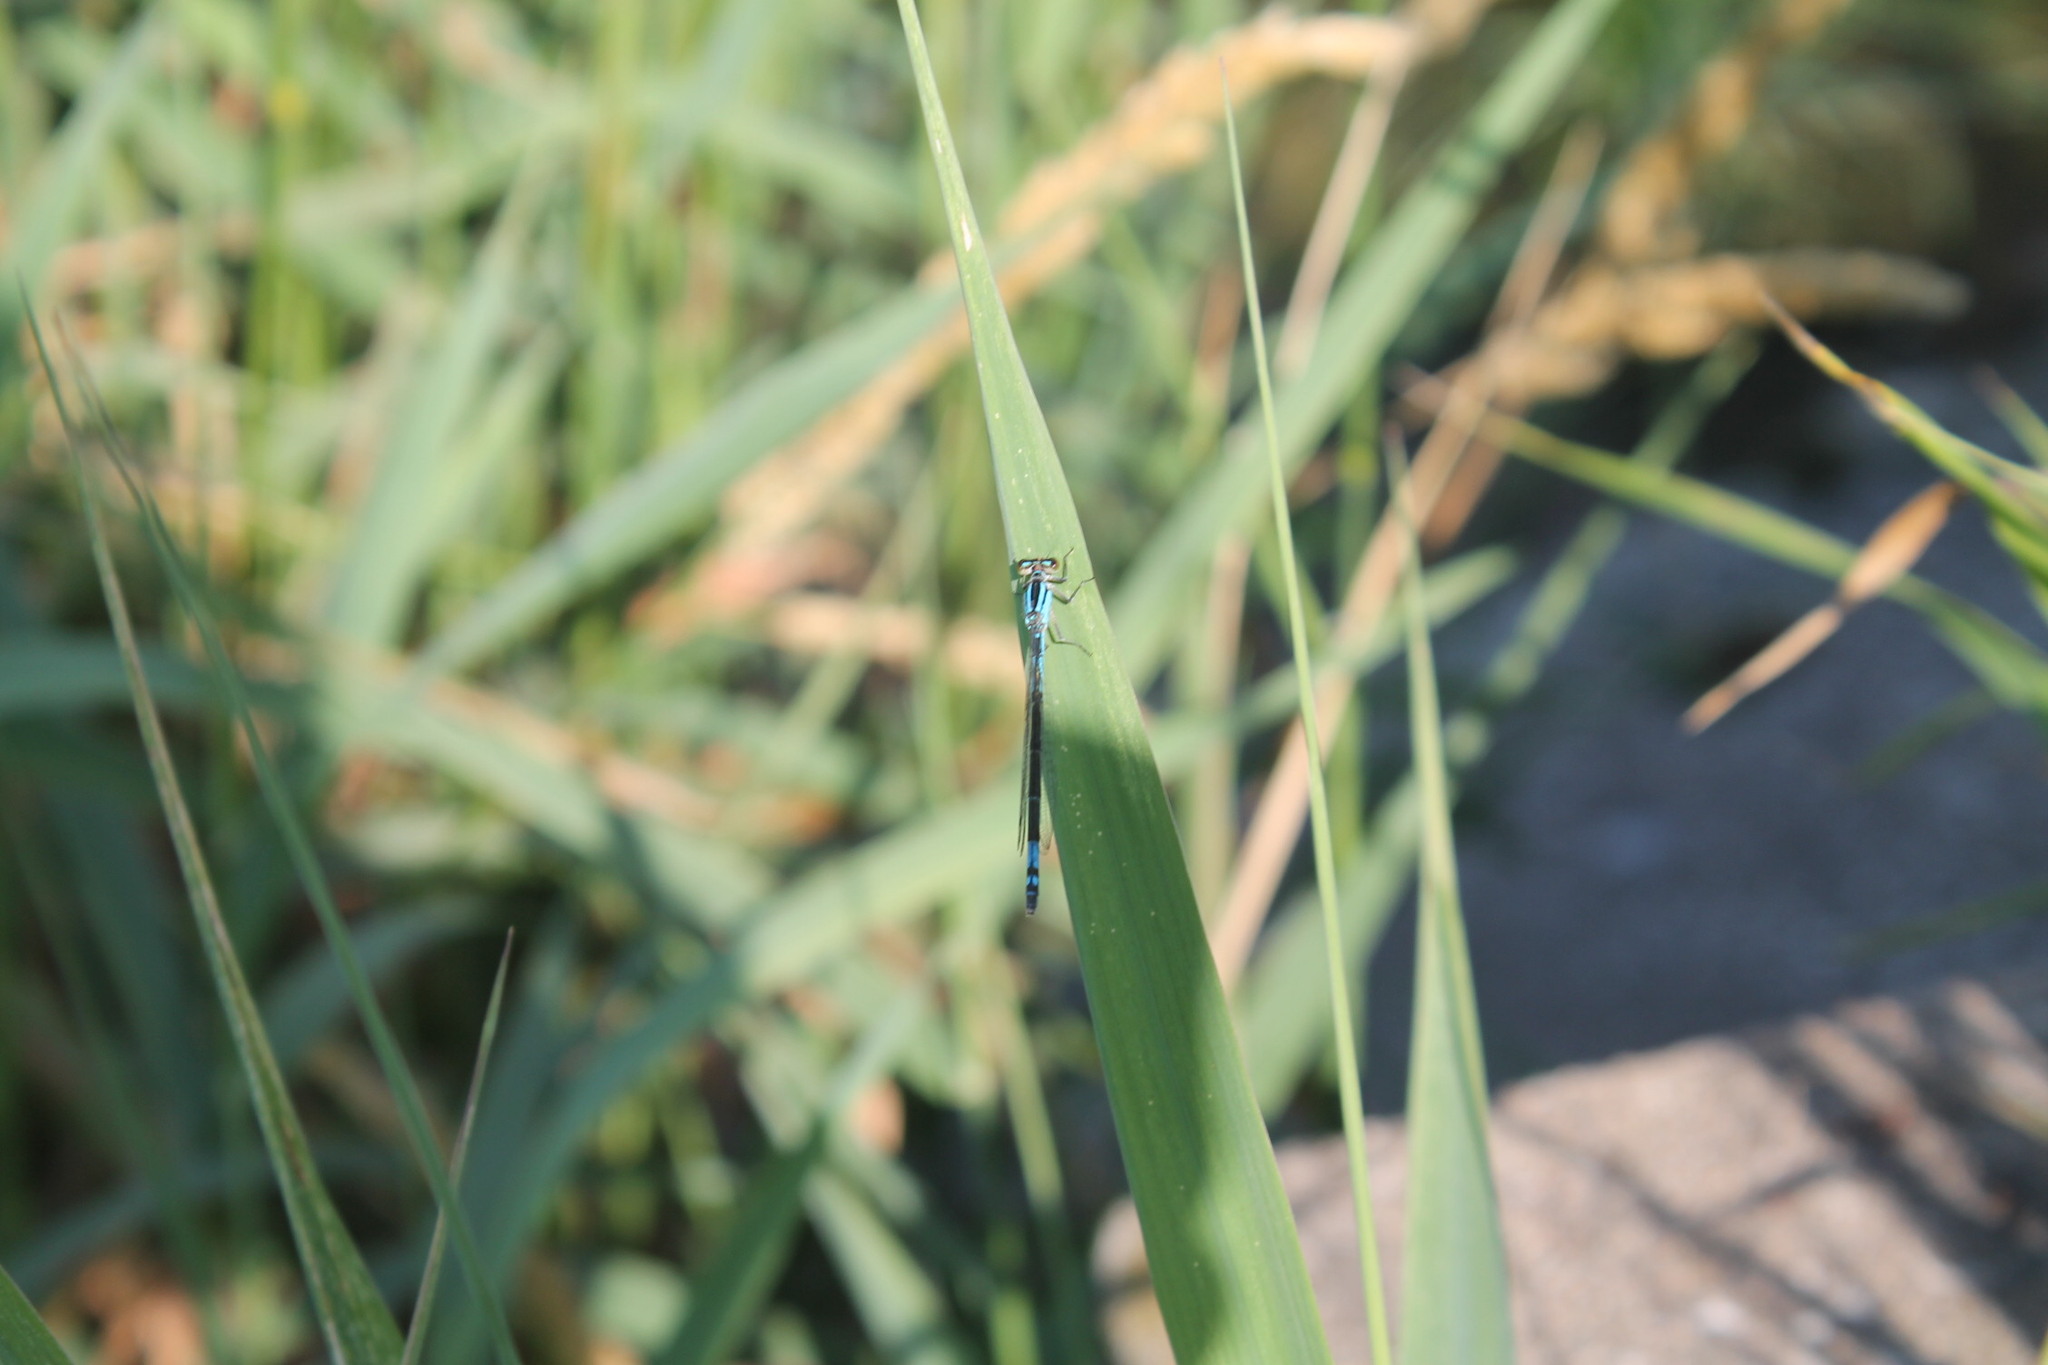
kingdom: Animalia
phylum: Arthropoda
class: Insecta
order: Odonata
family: Coenagrionidae
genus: Enallagma
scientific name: Enallagma aspersum
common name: Azure bluet
